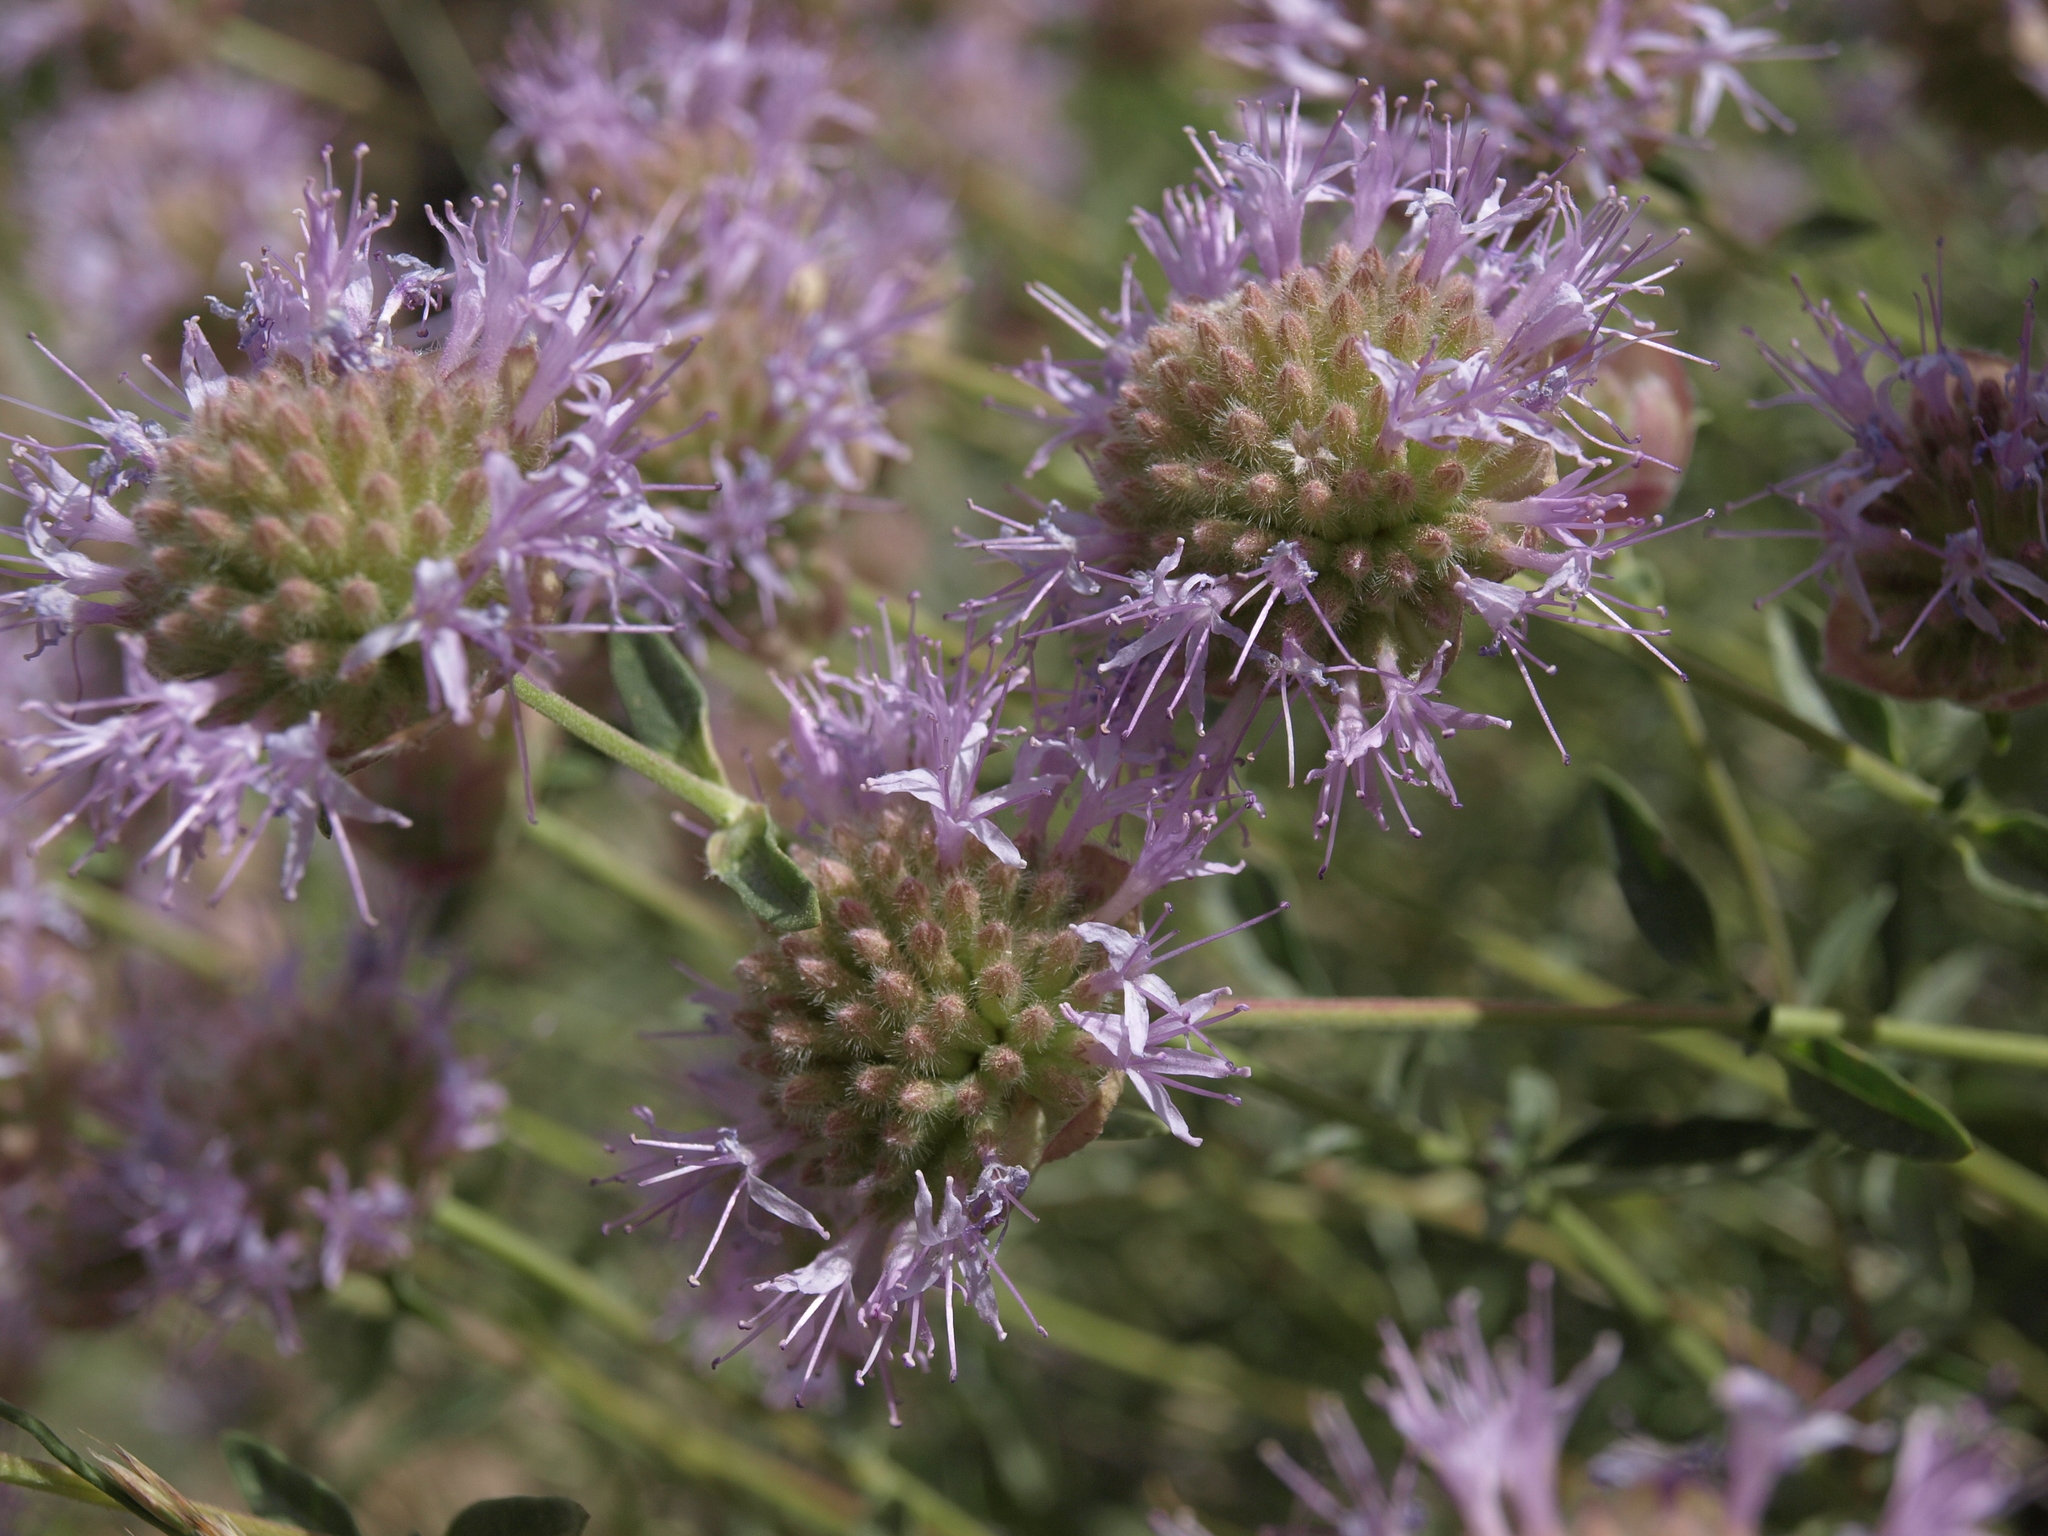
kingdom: Plantae
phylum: Tracheophyta
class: Magnoliopsida
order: Lamiales
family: Lamiaceae
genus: Monardella
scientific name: Monardella odoratissima
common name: Pacific monardella
